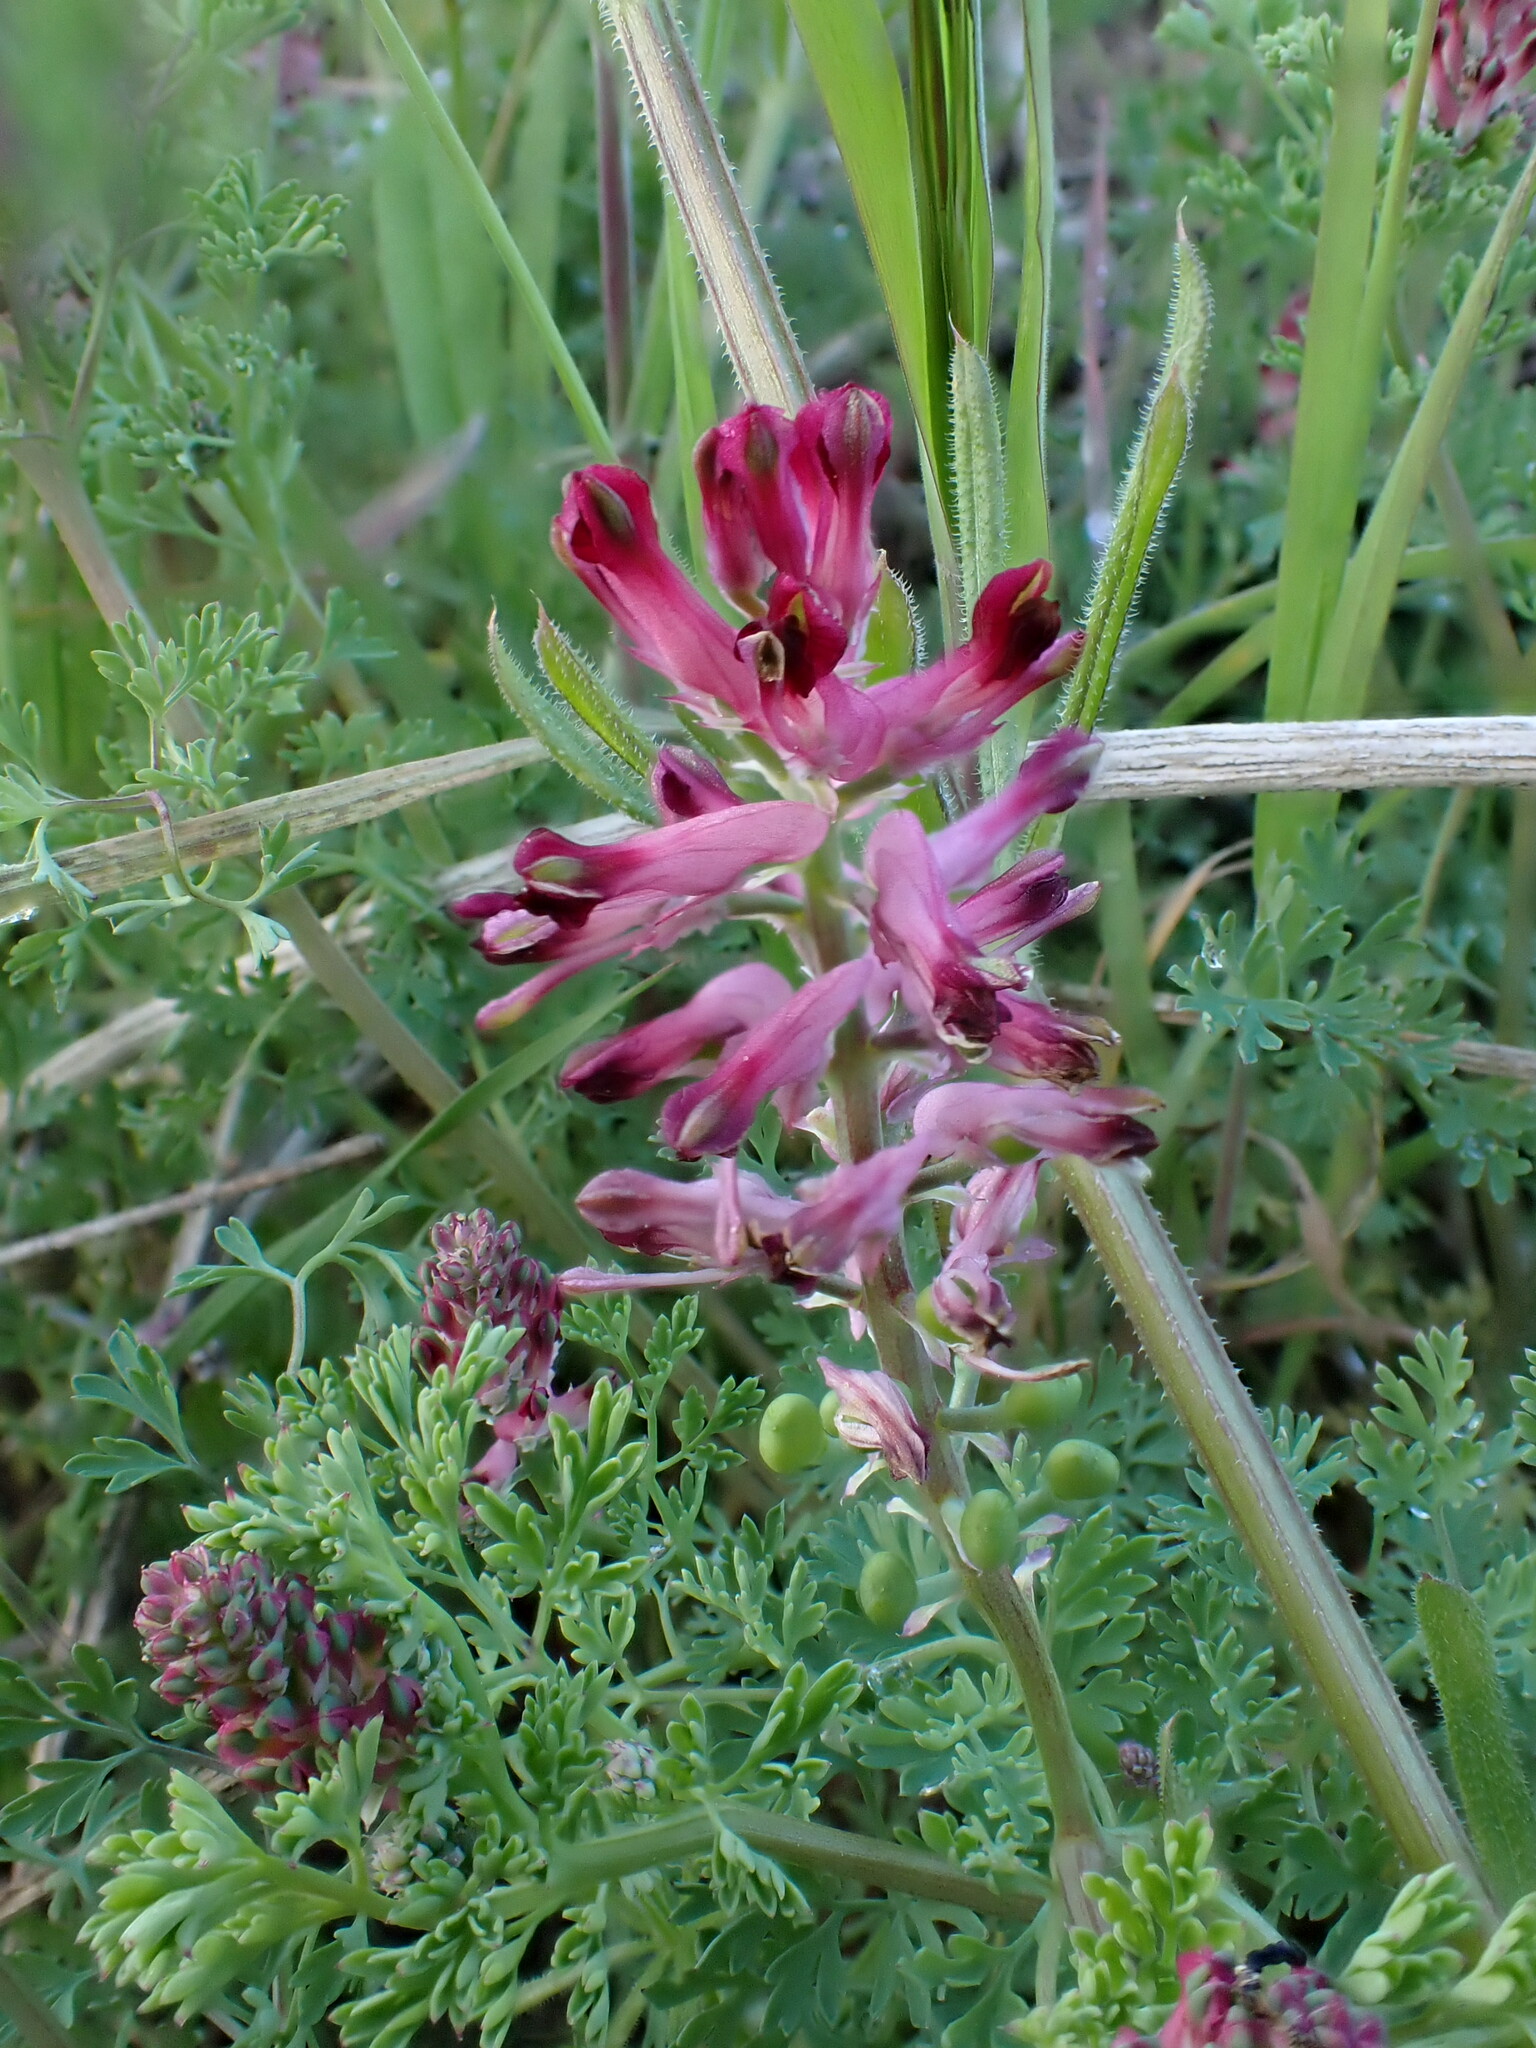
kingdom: Plantae
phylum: Tracheophyta
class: Magnoliopsida
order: Ranunculales
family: Papaveraceae
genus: Fumaria
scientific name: Fumaria officinalis
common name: Common fumitory
